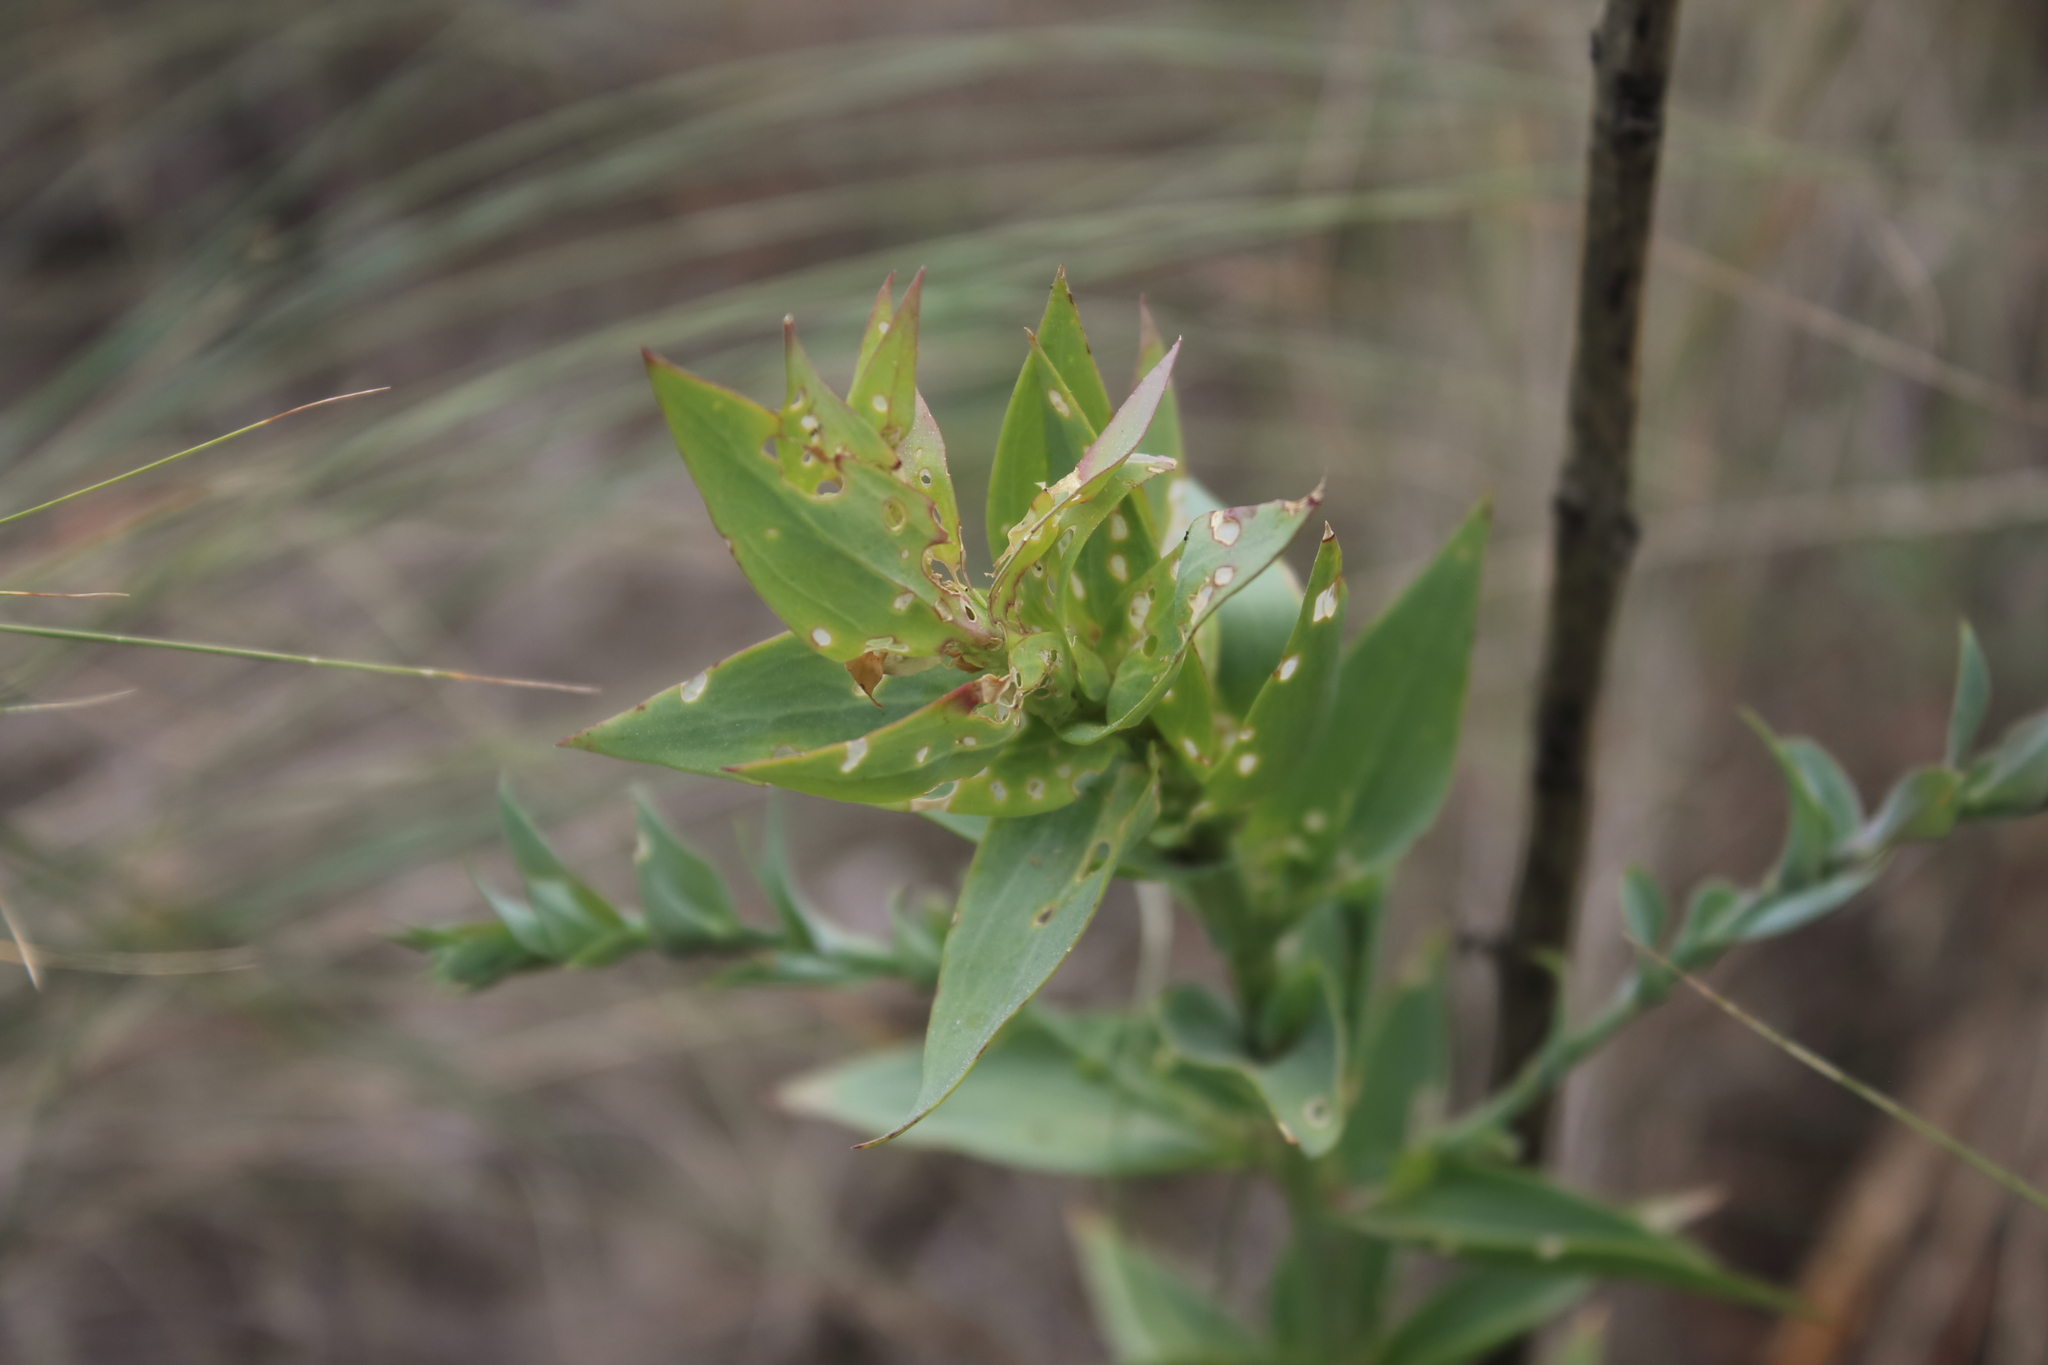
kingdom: Plantae
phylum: Tracheophyta
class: Magnoliopsida
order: Lamiales
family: Plantaginaceae
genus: Linaria
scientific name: Linaria dalmatica
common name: Dalmatian toadflax
